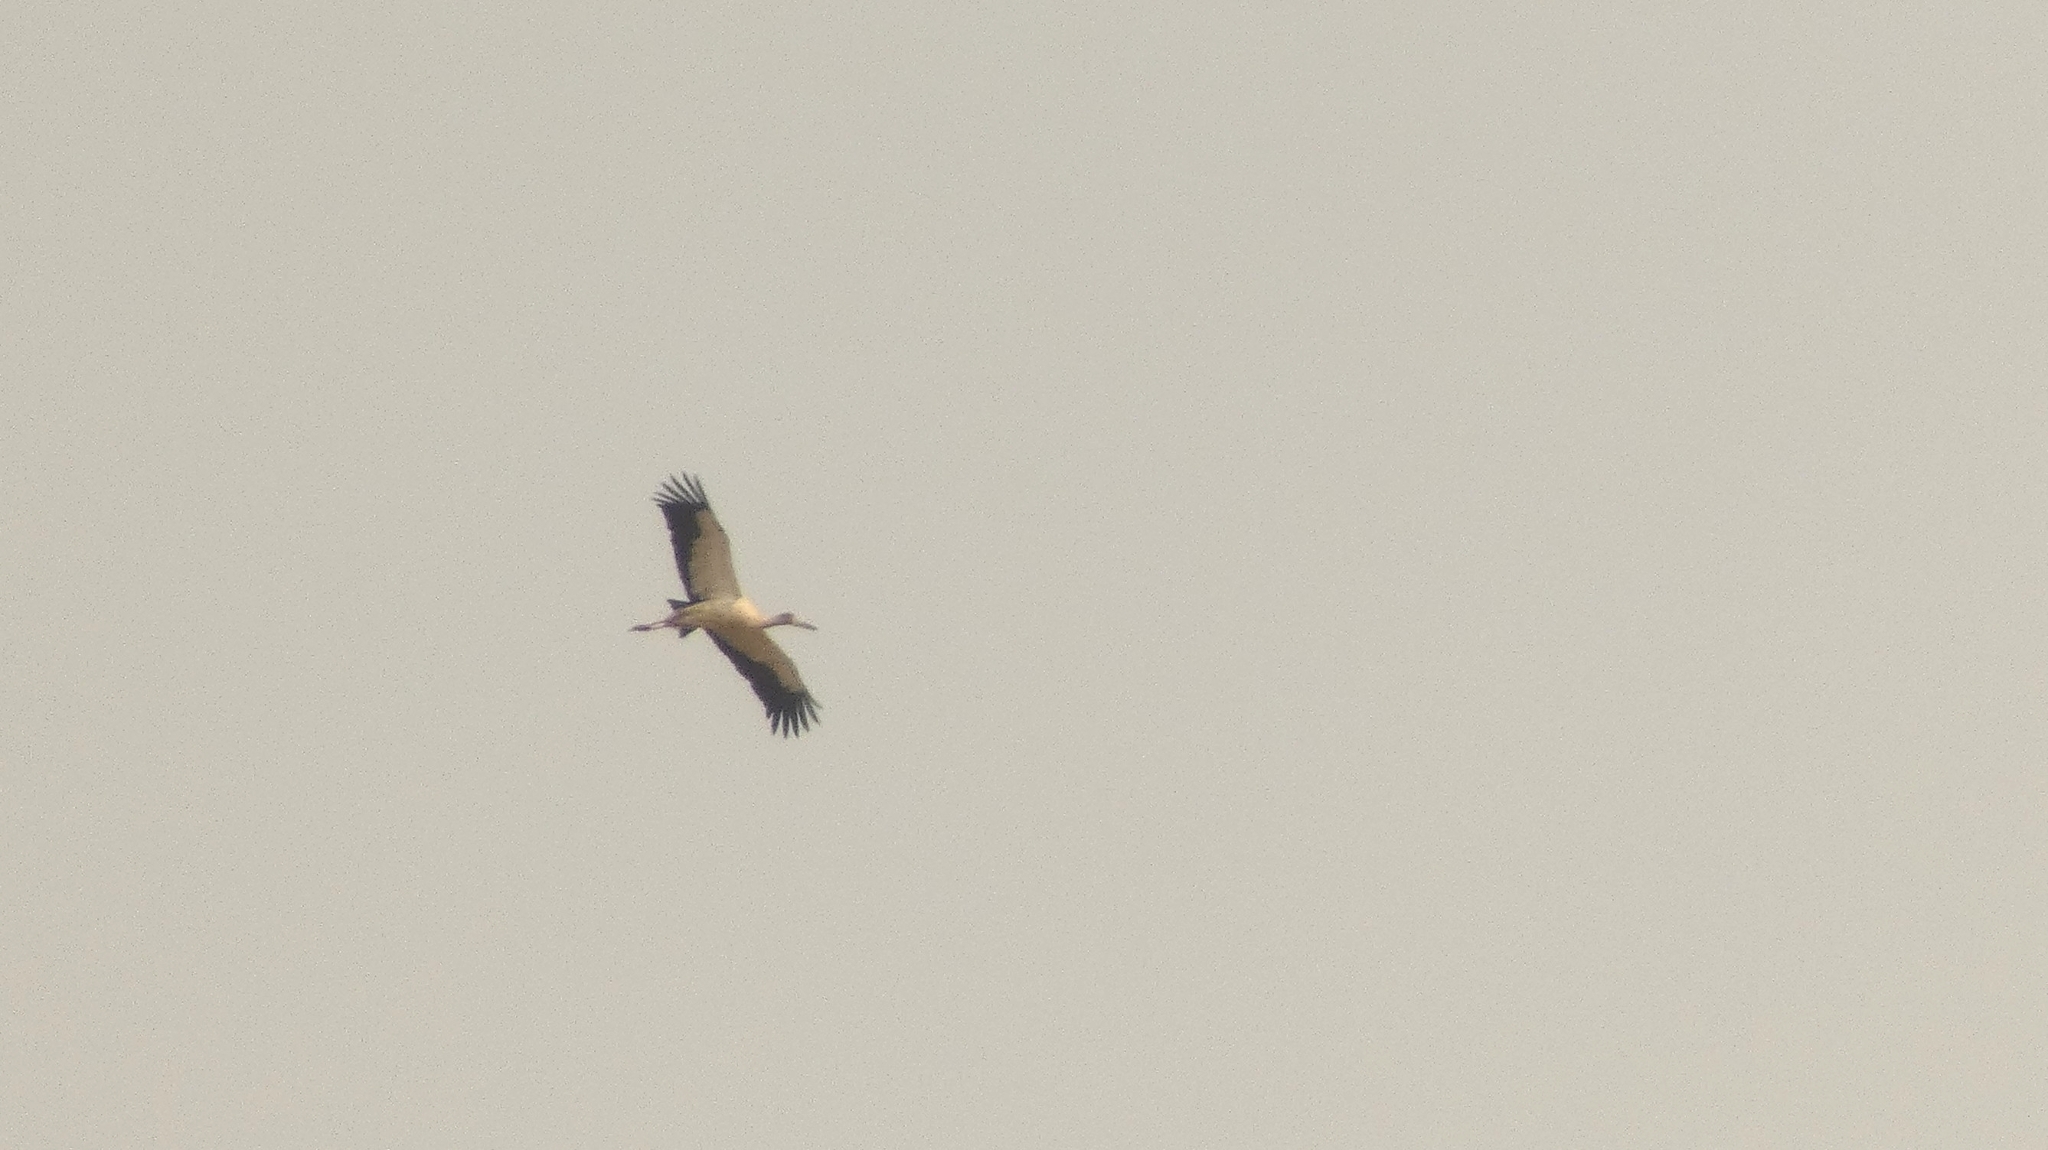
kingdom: Animalia
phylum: Chordata
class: Aves
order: Ciconiiformes
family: Ciconiidae
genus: Ciconia
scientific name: Ciconia maguari
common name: Maguari stork
